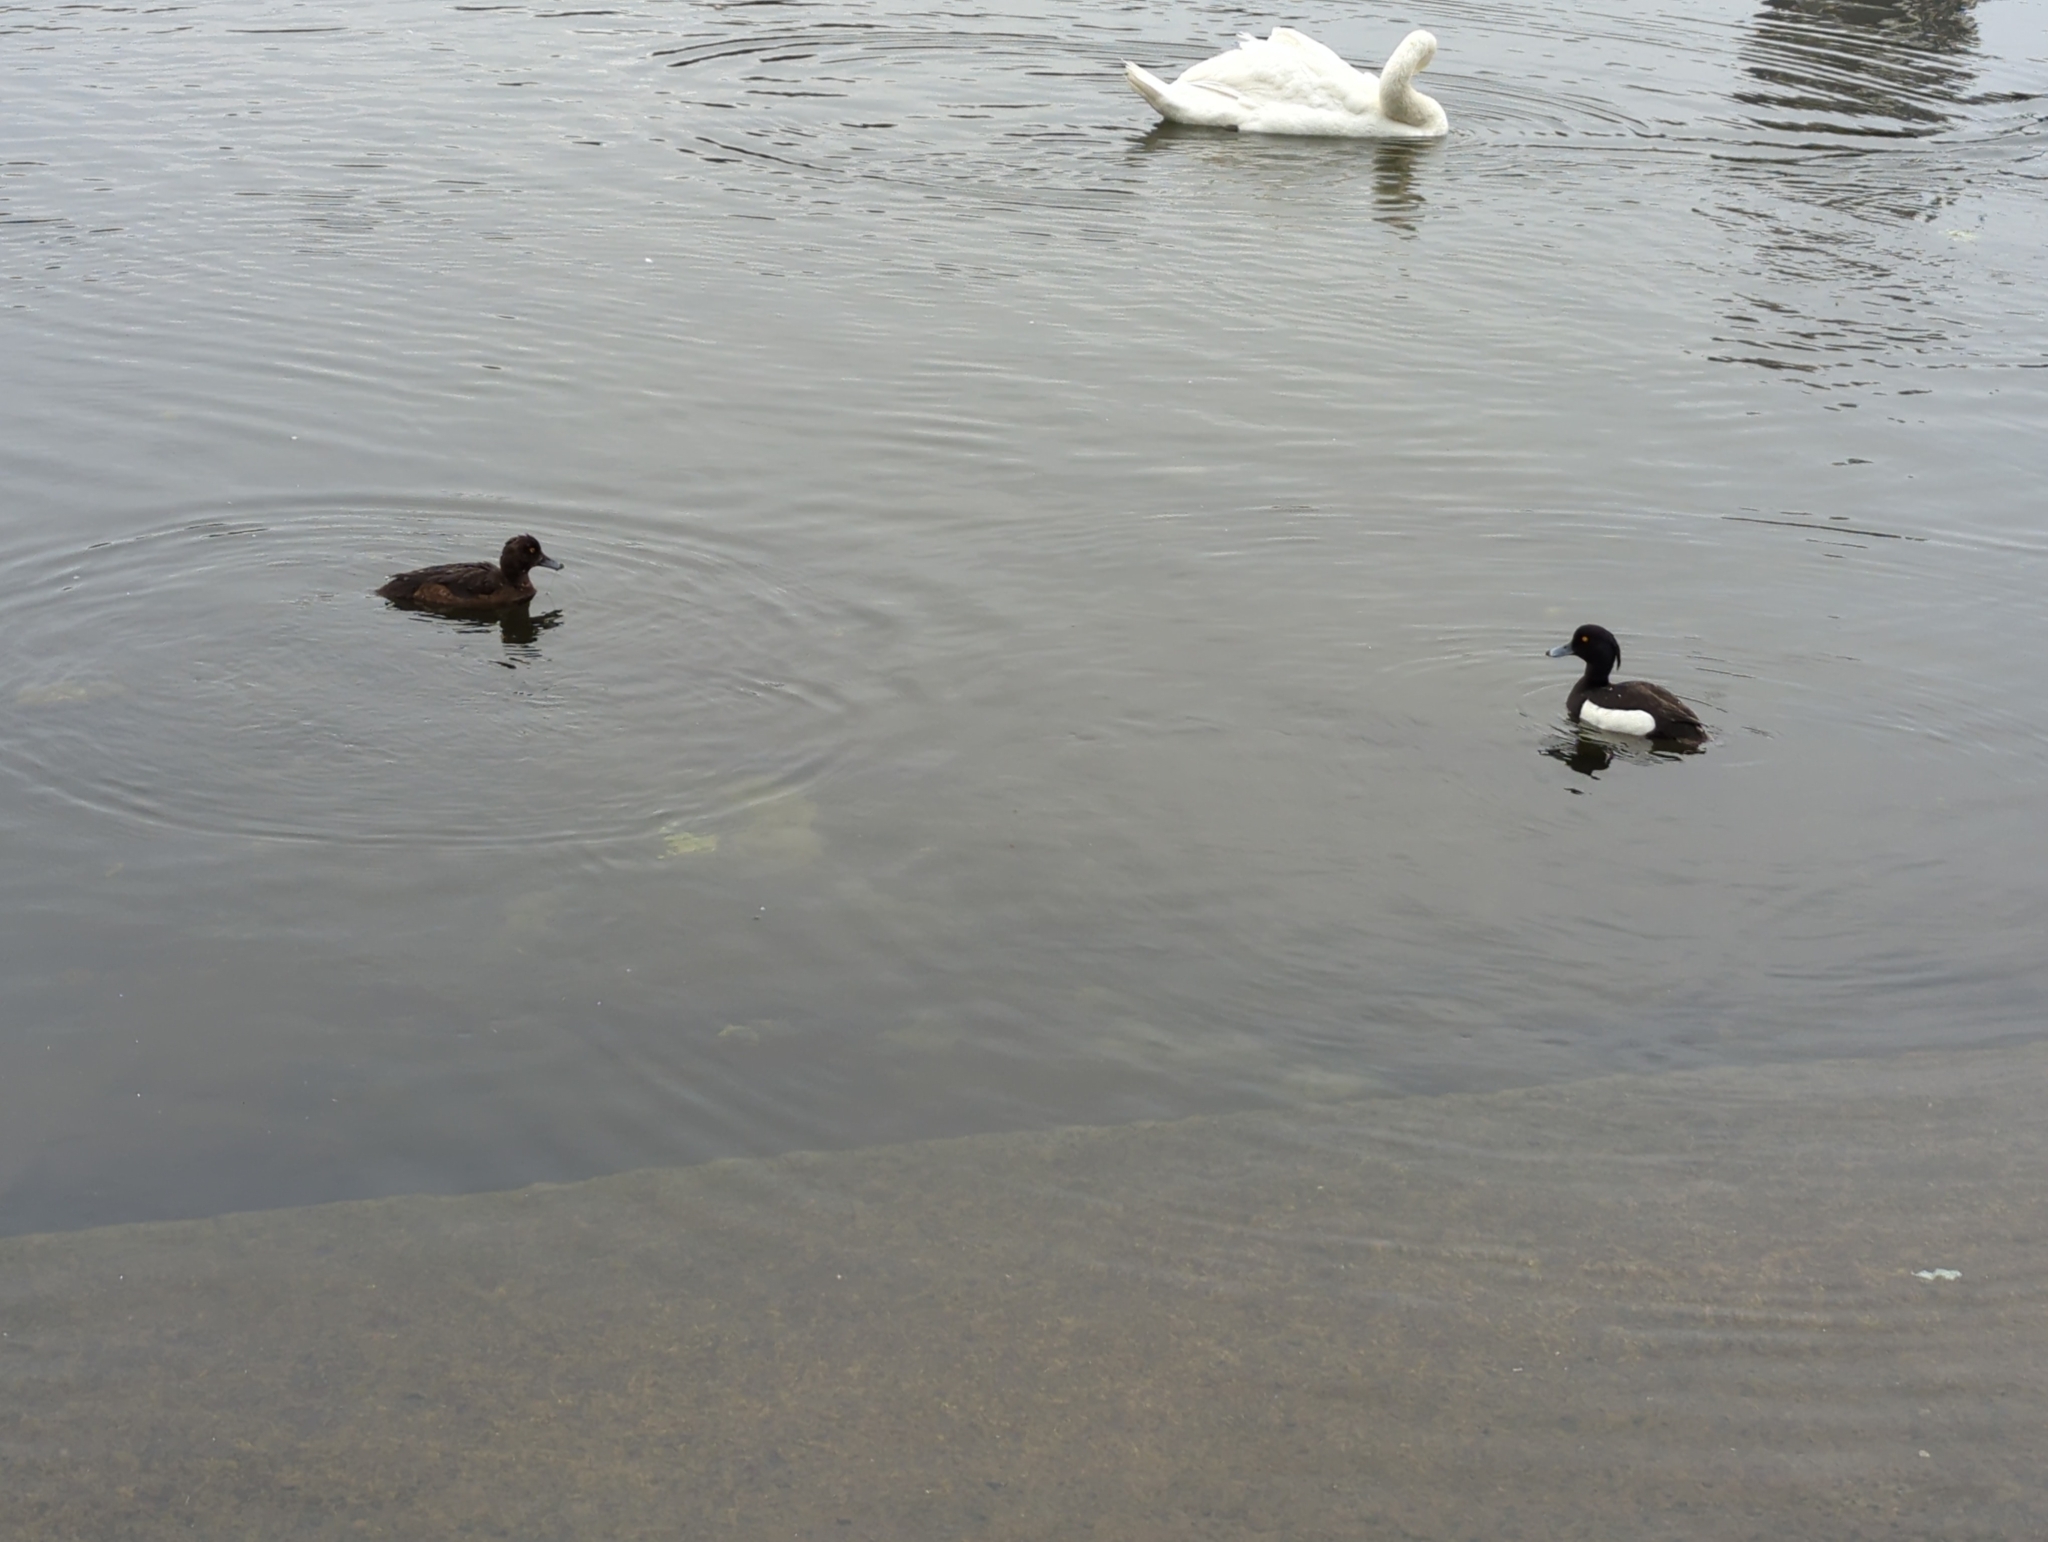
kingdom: Animalia
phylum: Chordata
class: Aves
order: Anseriformes
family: Anatidae
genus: Aythya
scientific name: Aythya fuligula
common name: Tufted duck
